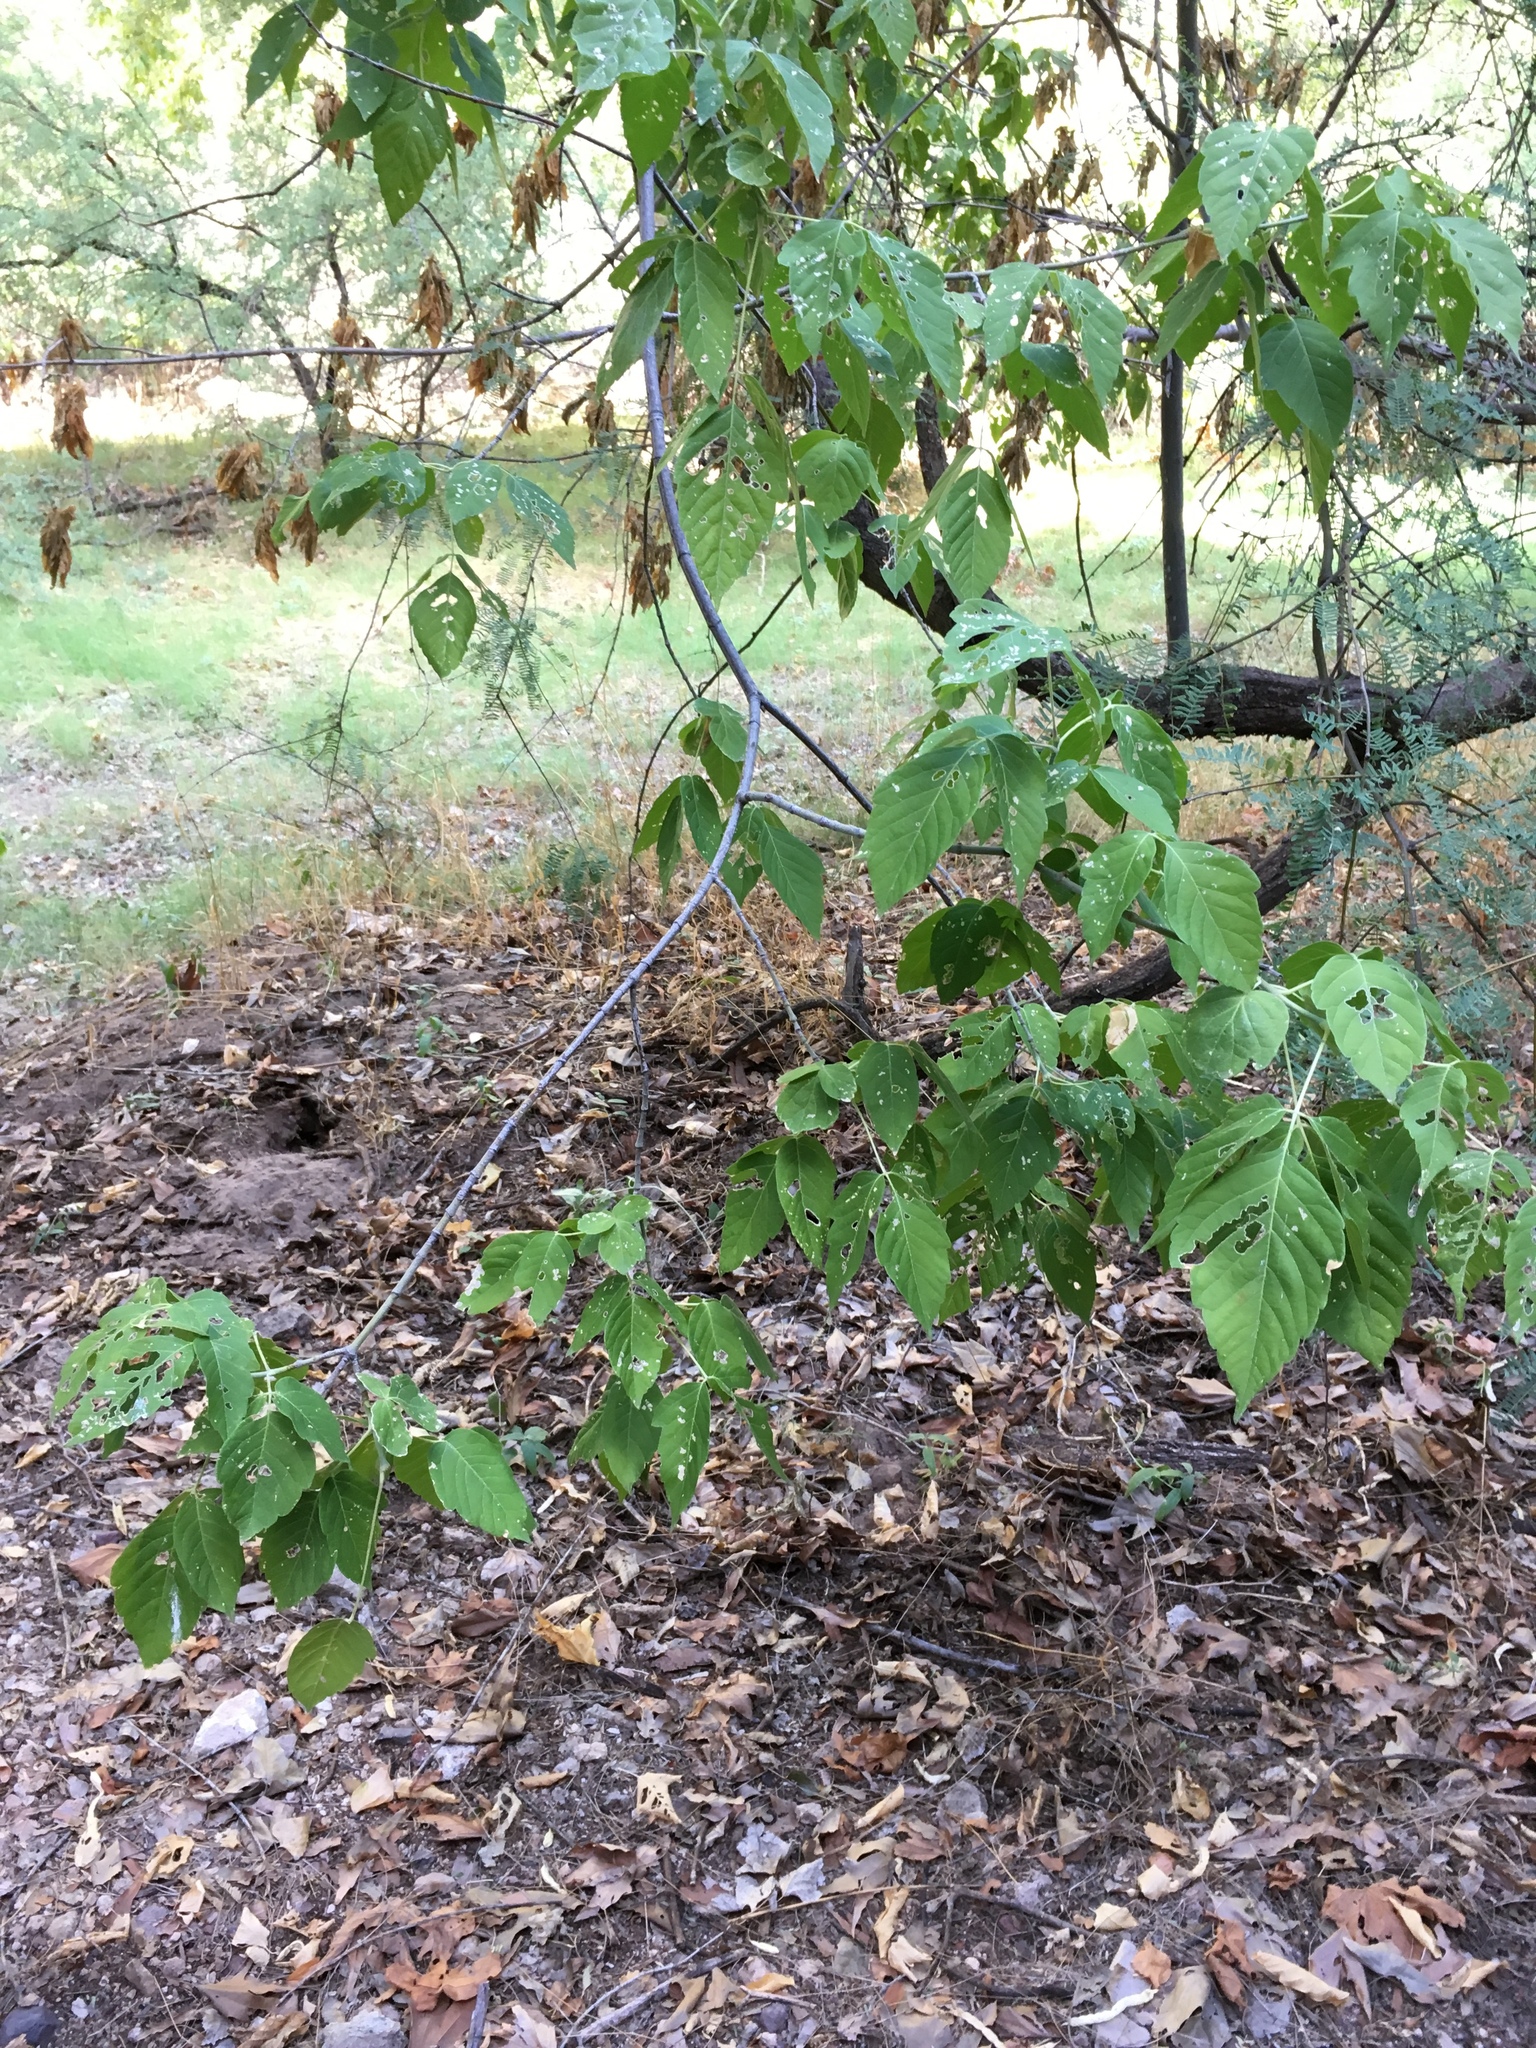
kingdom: Plantae
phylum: Tracheophyta
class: Magnoliopsida
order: Sapindales
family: Sapindaceae
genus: Acer
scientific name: Acer negundo
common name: Ashleaf maple
